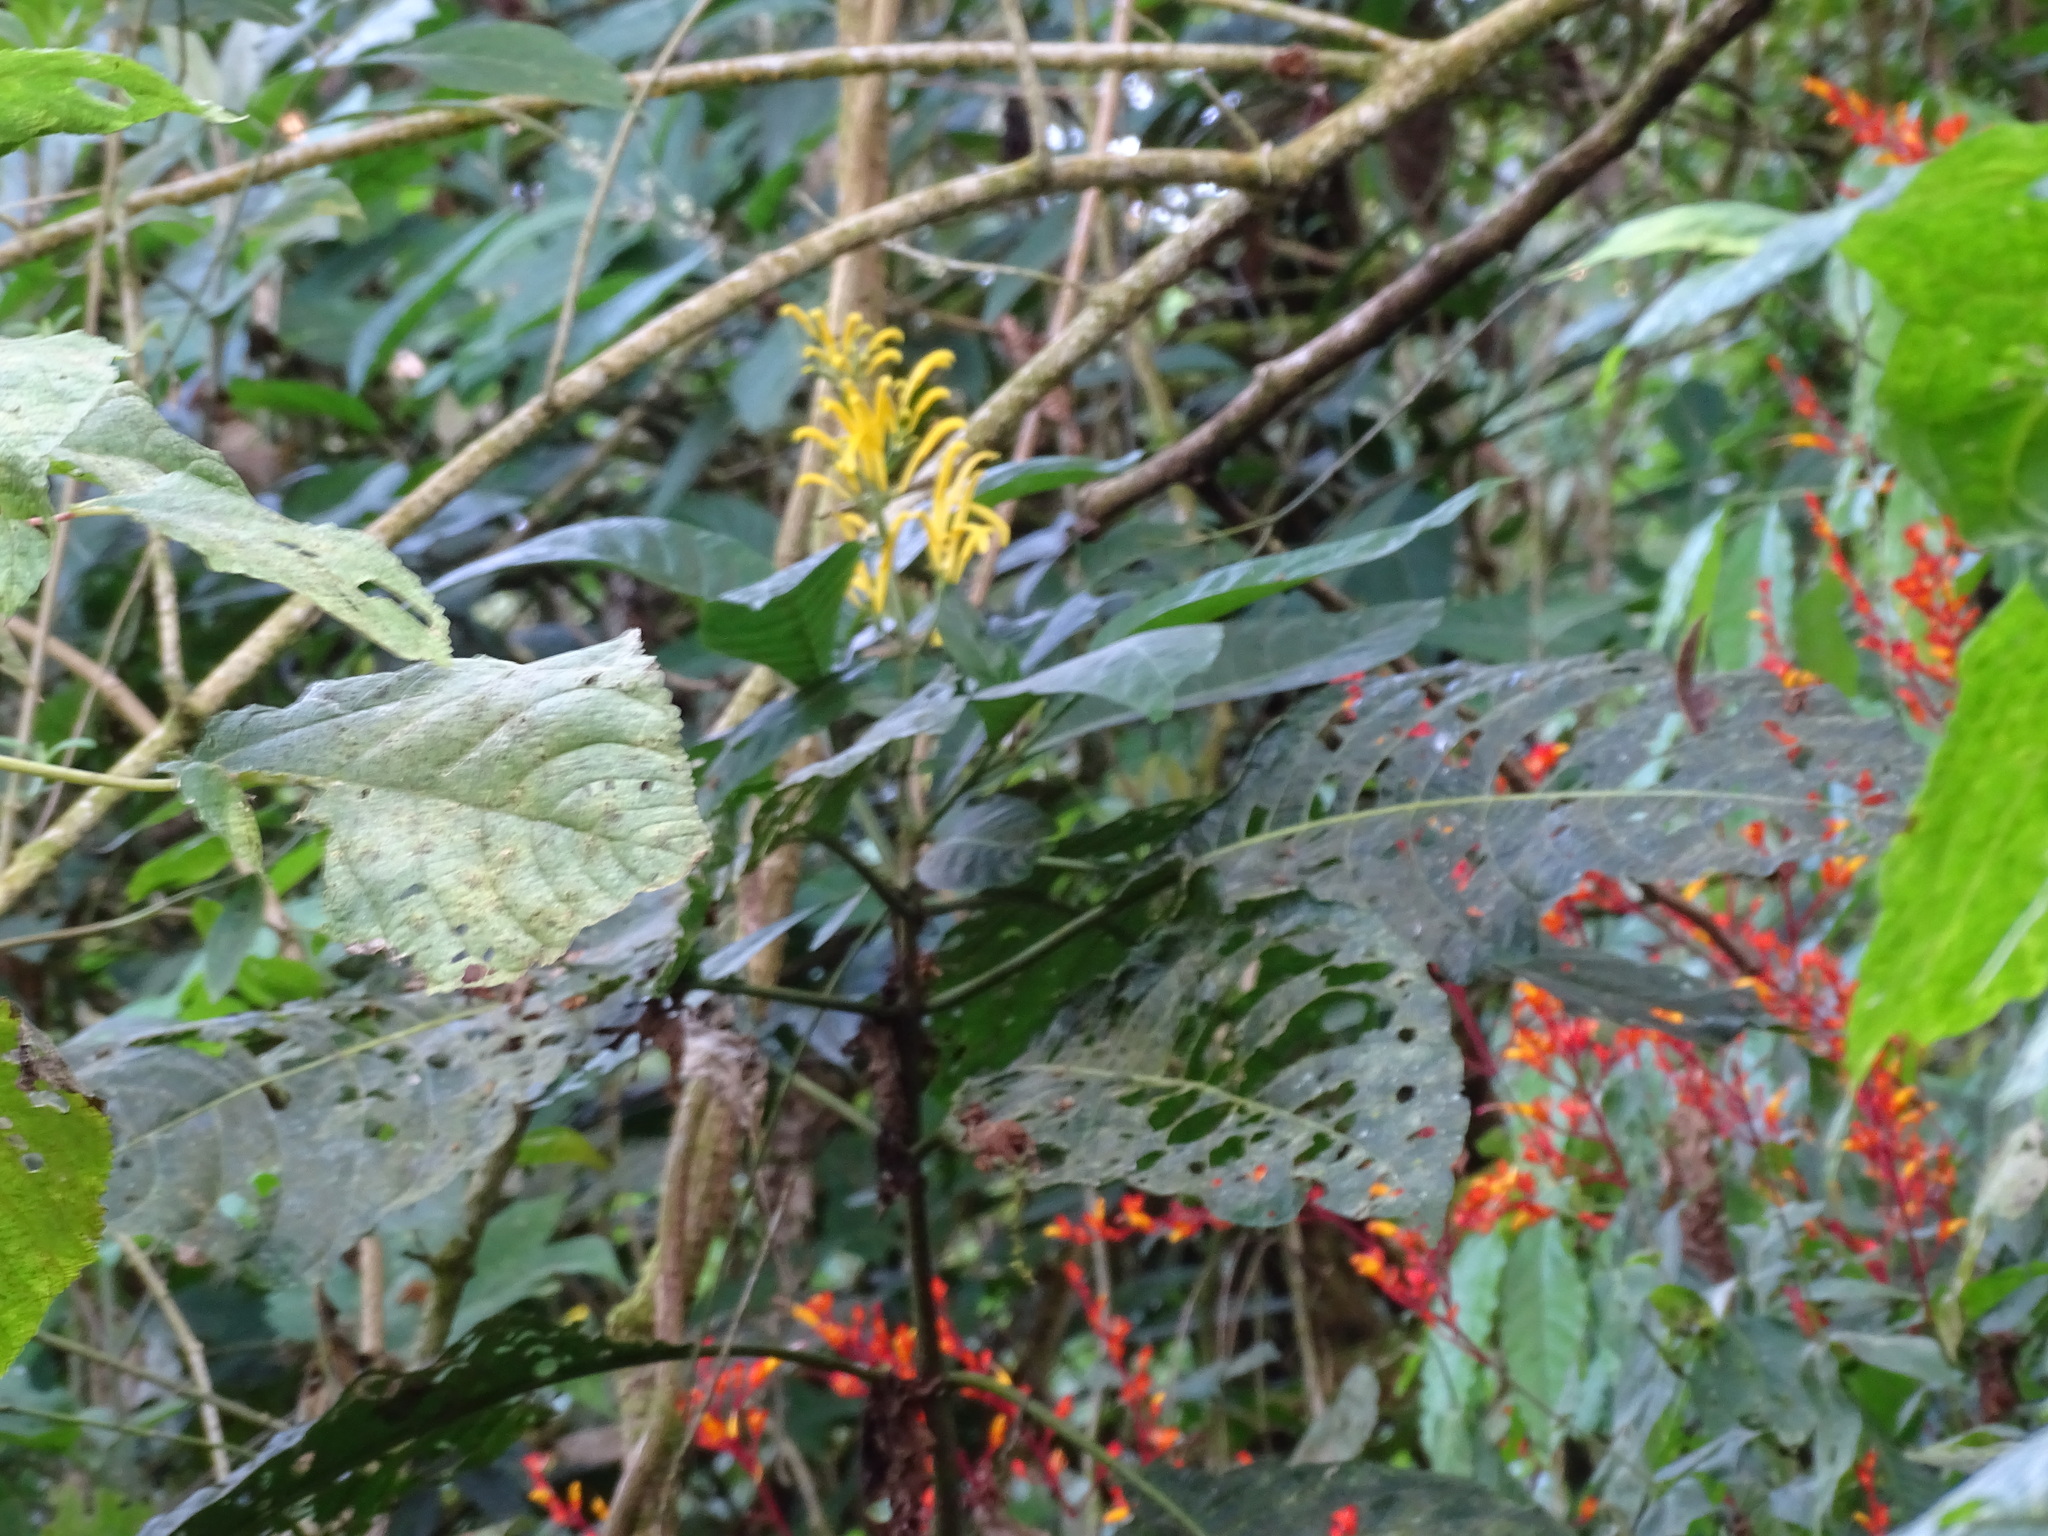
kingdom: Plantae
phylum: Tracheophyta
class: Magnoliopsida
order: Lamiales
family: Acanthaceae
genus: Justicia
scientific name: Justicia aurea
